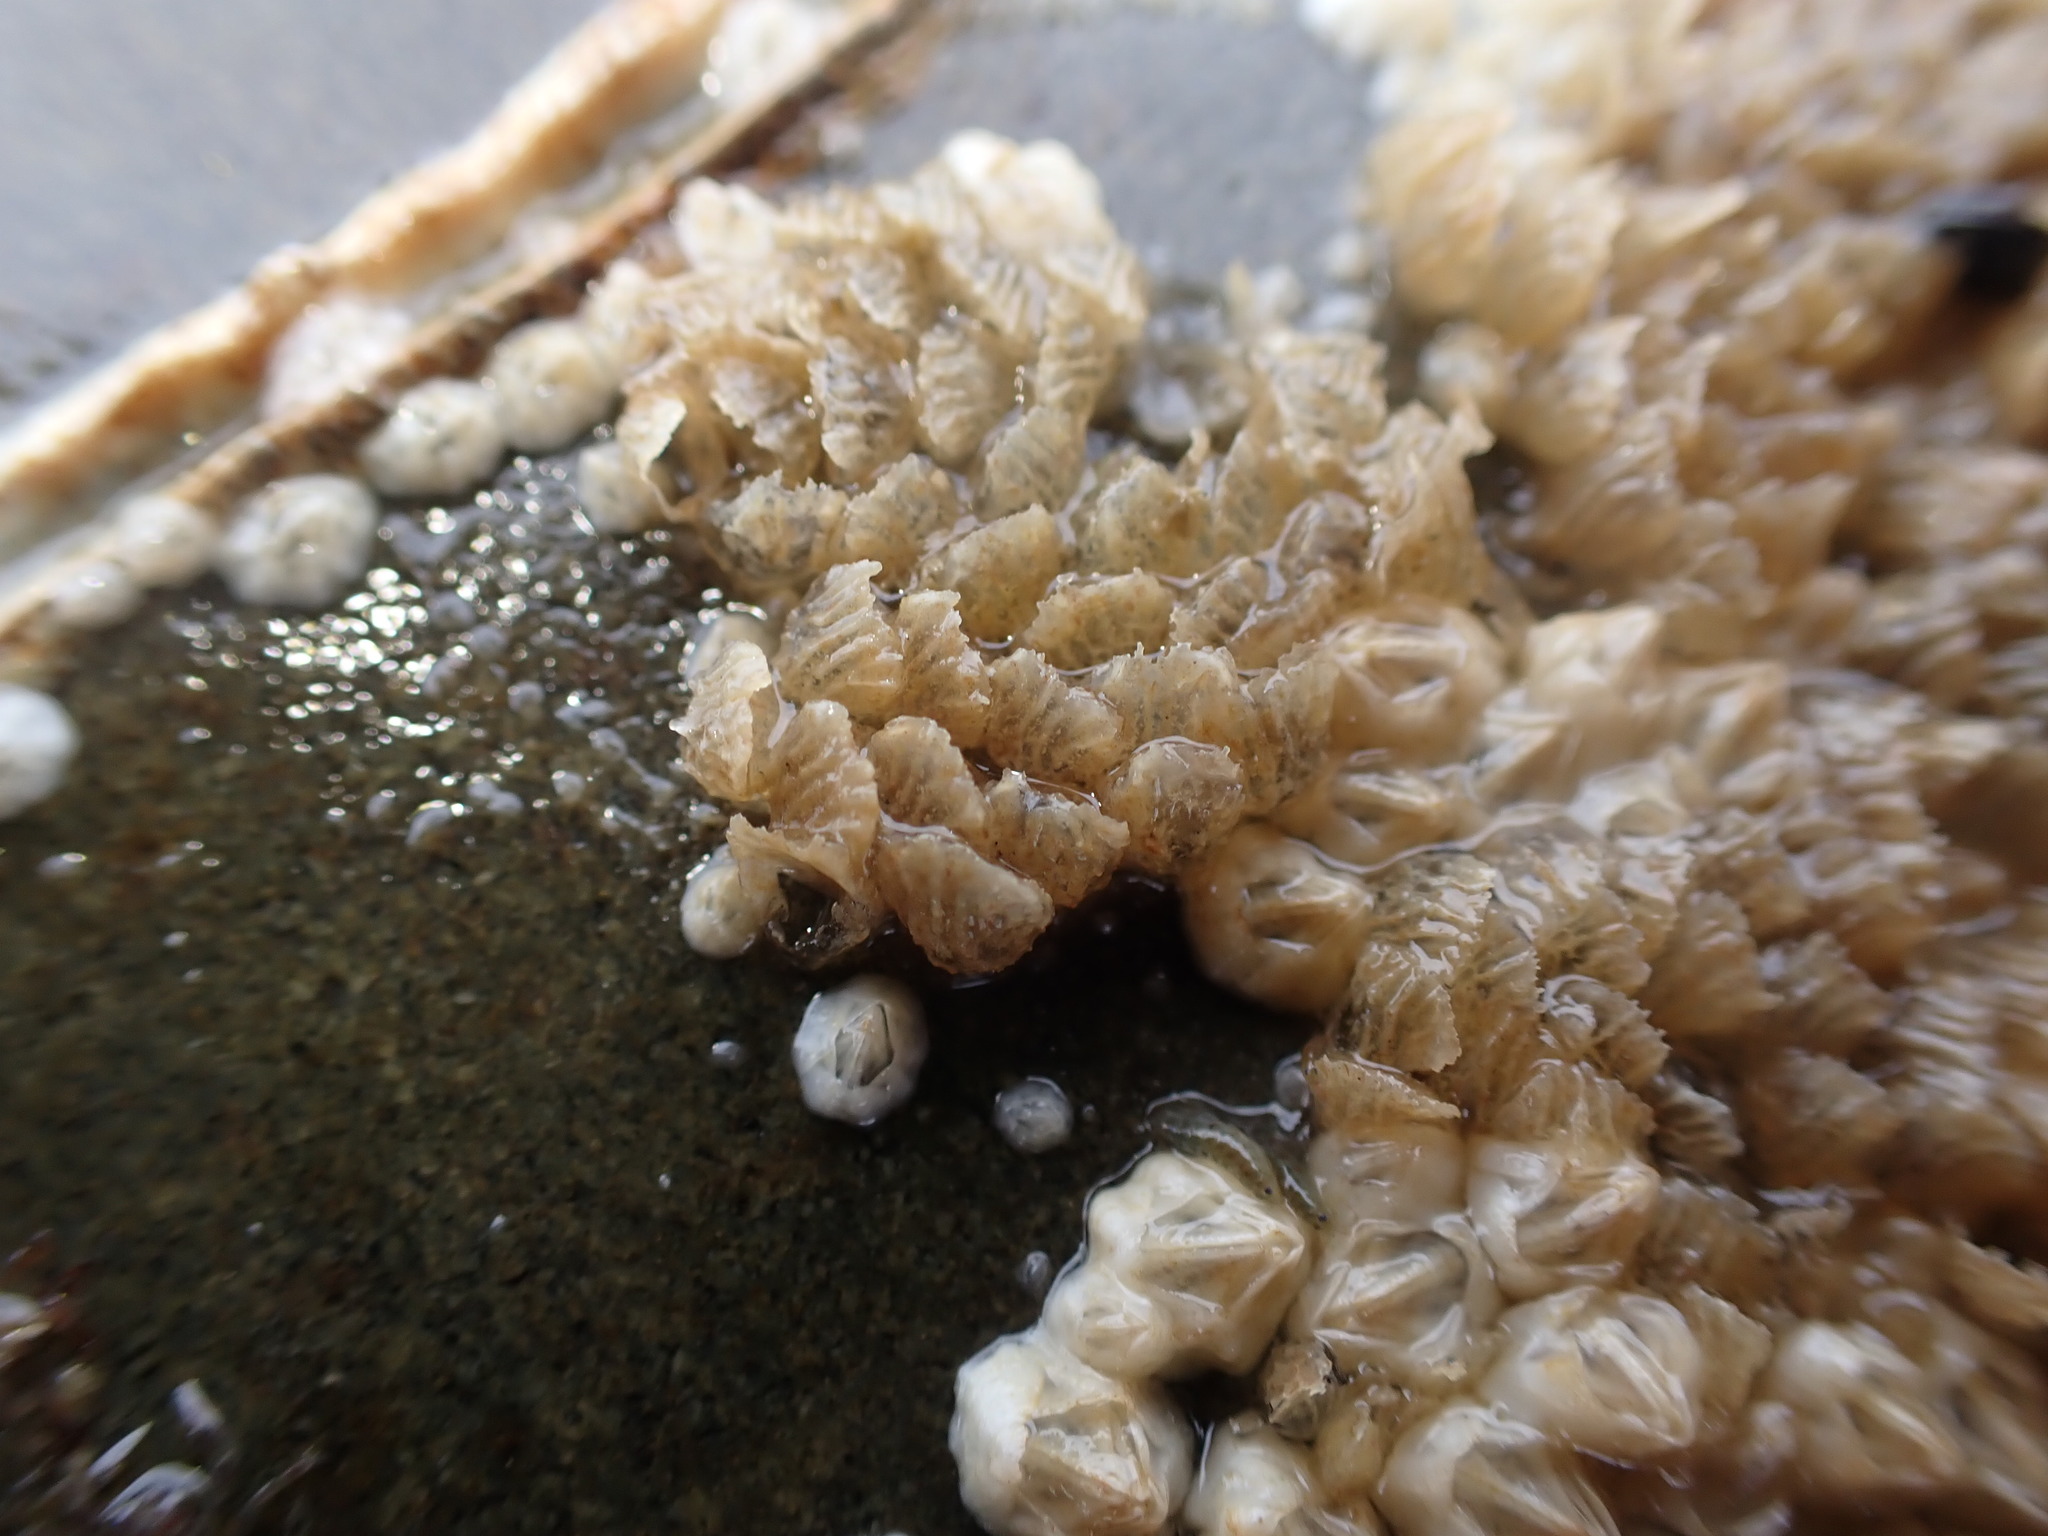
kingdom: Animalia
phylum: Mollusca
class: Gastropoda
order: Neogastropoda
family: Cominellidae
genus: Cominella
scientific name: Cominella virgata
